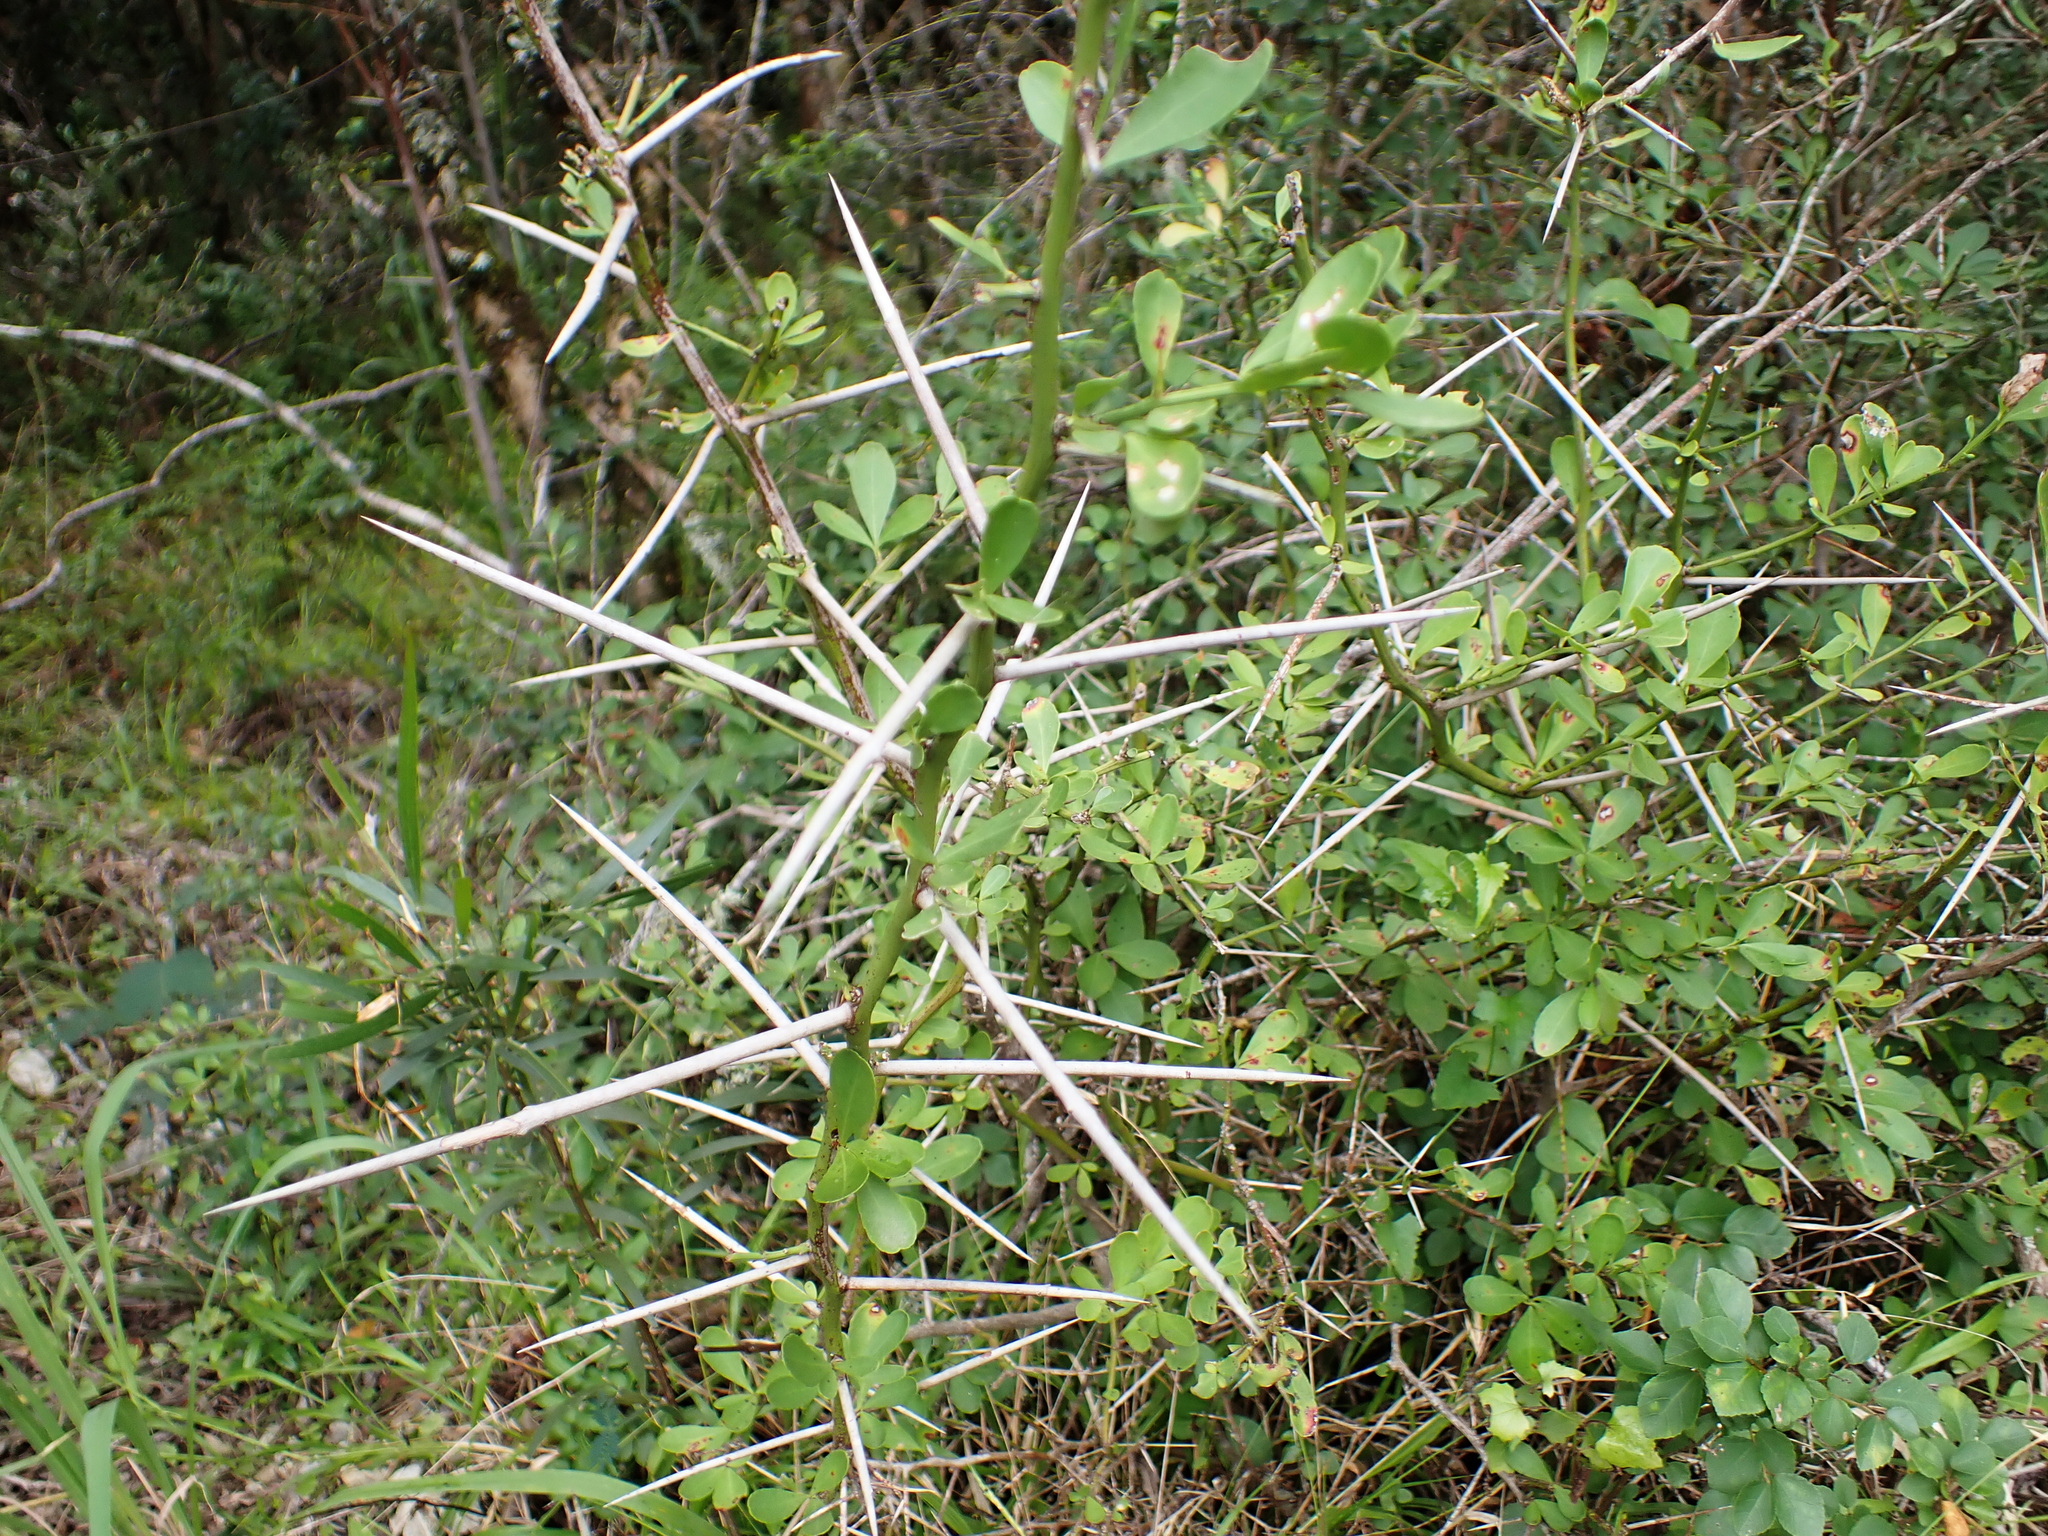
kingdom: Plantae
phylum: Tracheophyta
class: Magnoliopsida
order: Celastrales
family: Celastraceae
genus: Gymnosporia
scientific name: Gymnosporia buxifolia
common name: Common spike-thorn
